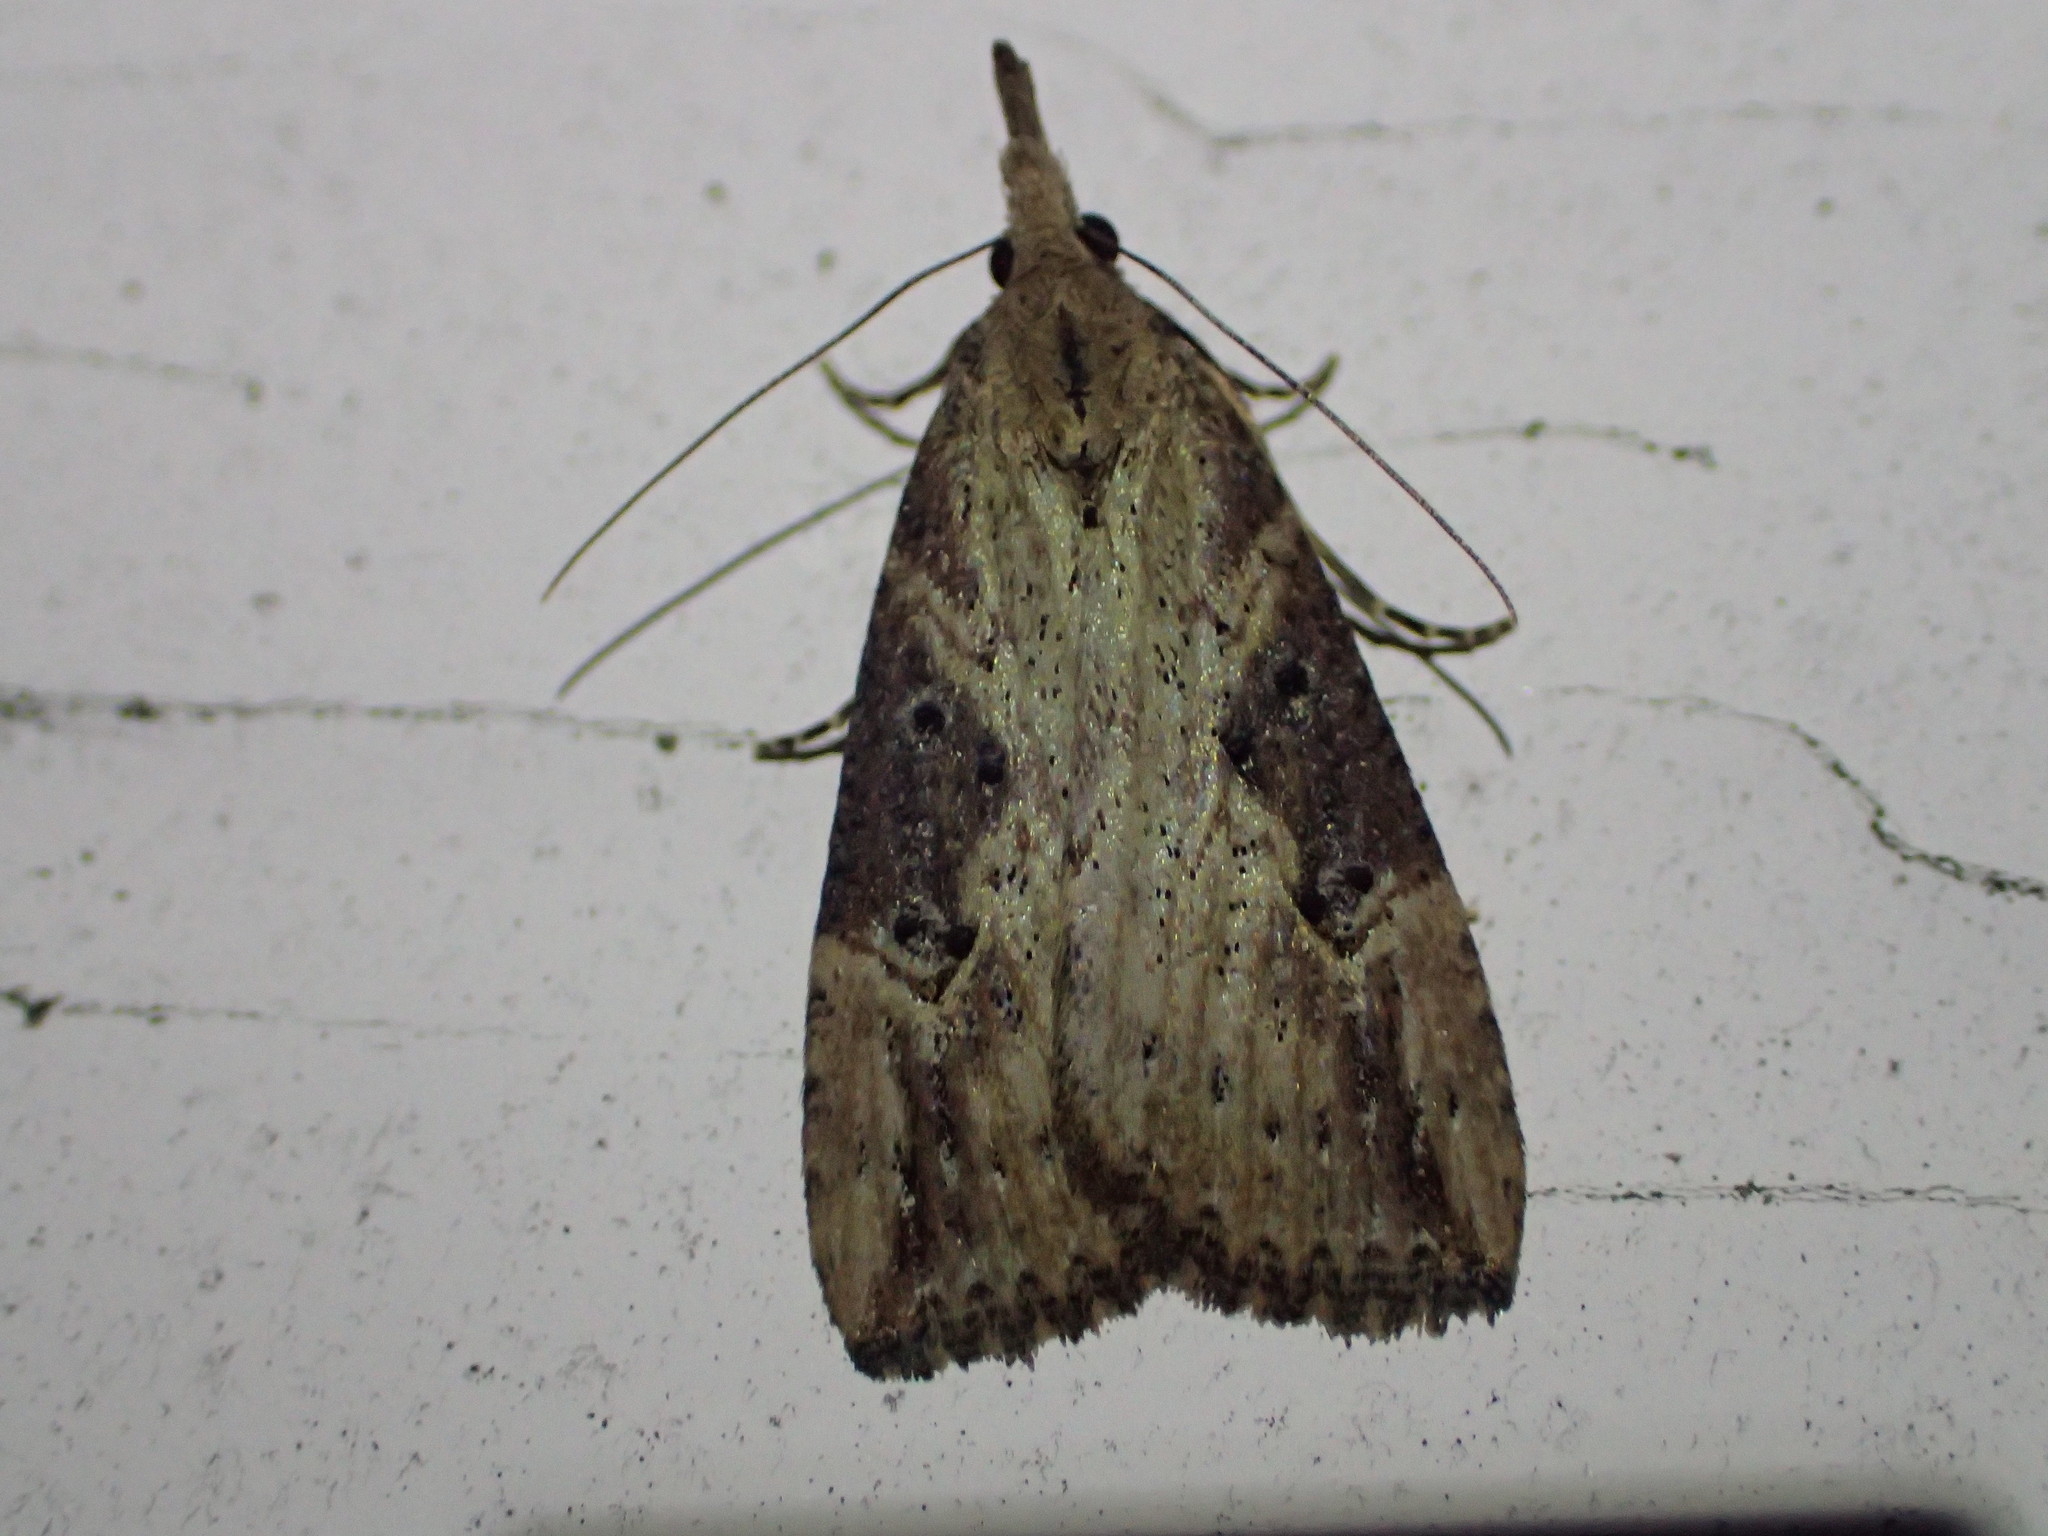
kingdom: Animalia
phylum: Arthropoda
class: Insecta
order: Lepidoptera
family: Erebidae
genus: Hypena
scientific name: Hypena humuli
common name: Hop vine snout
